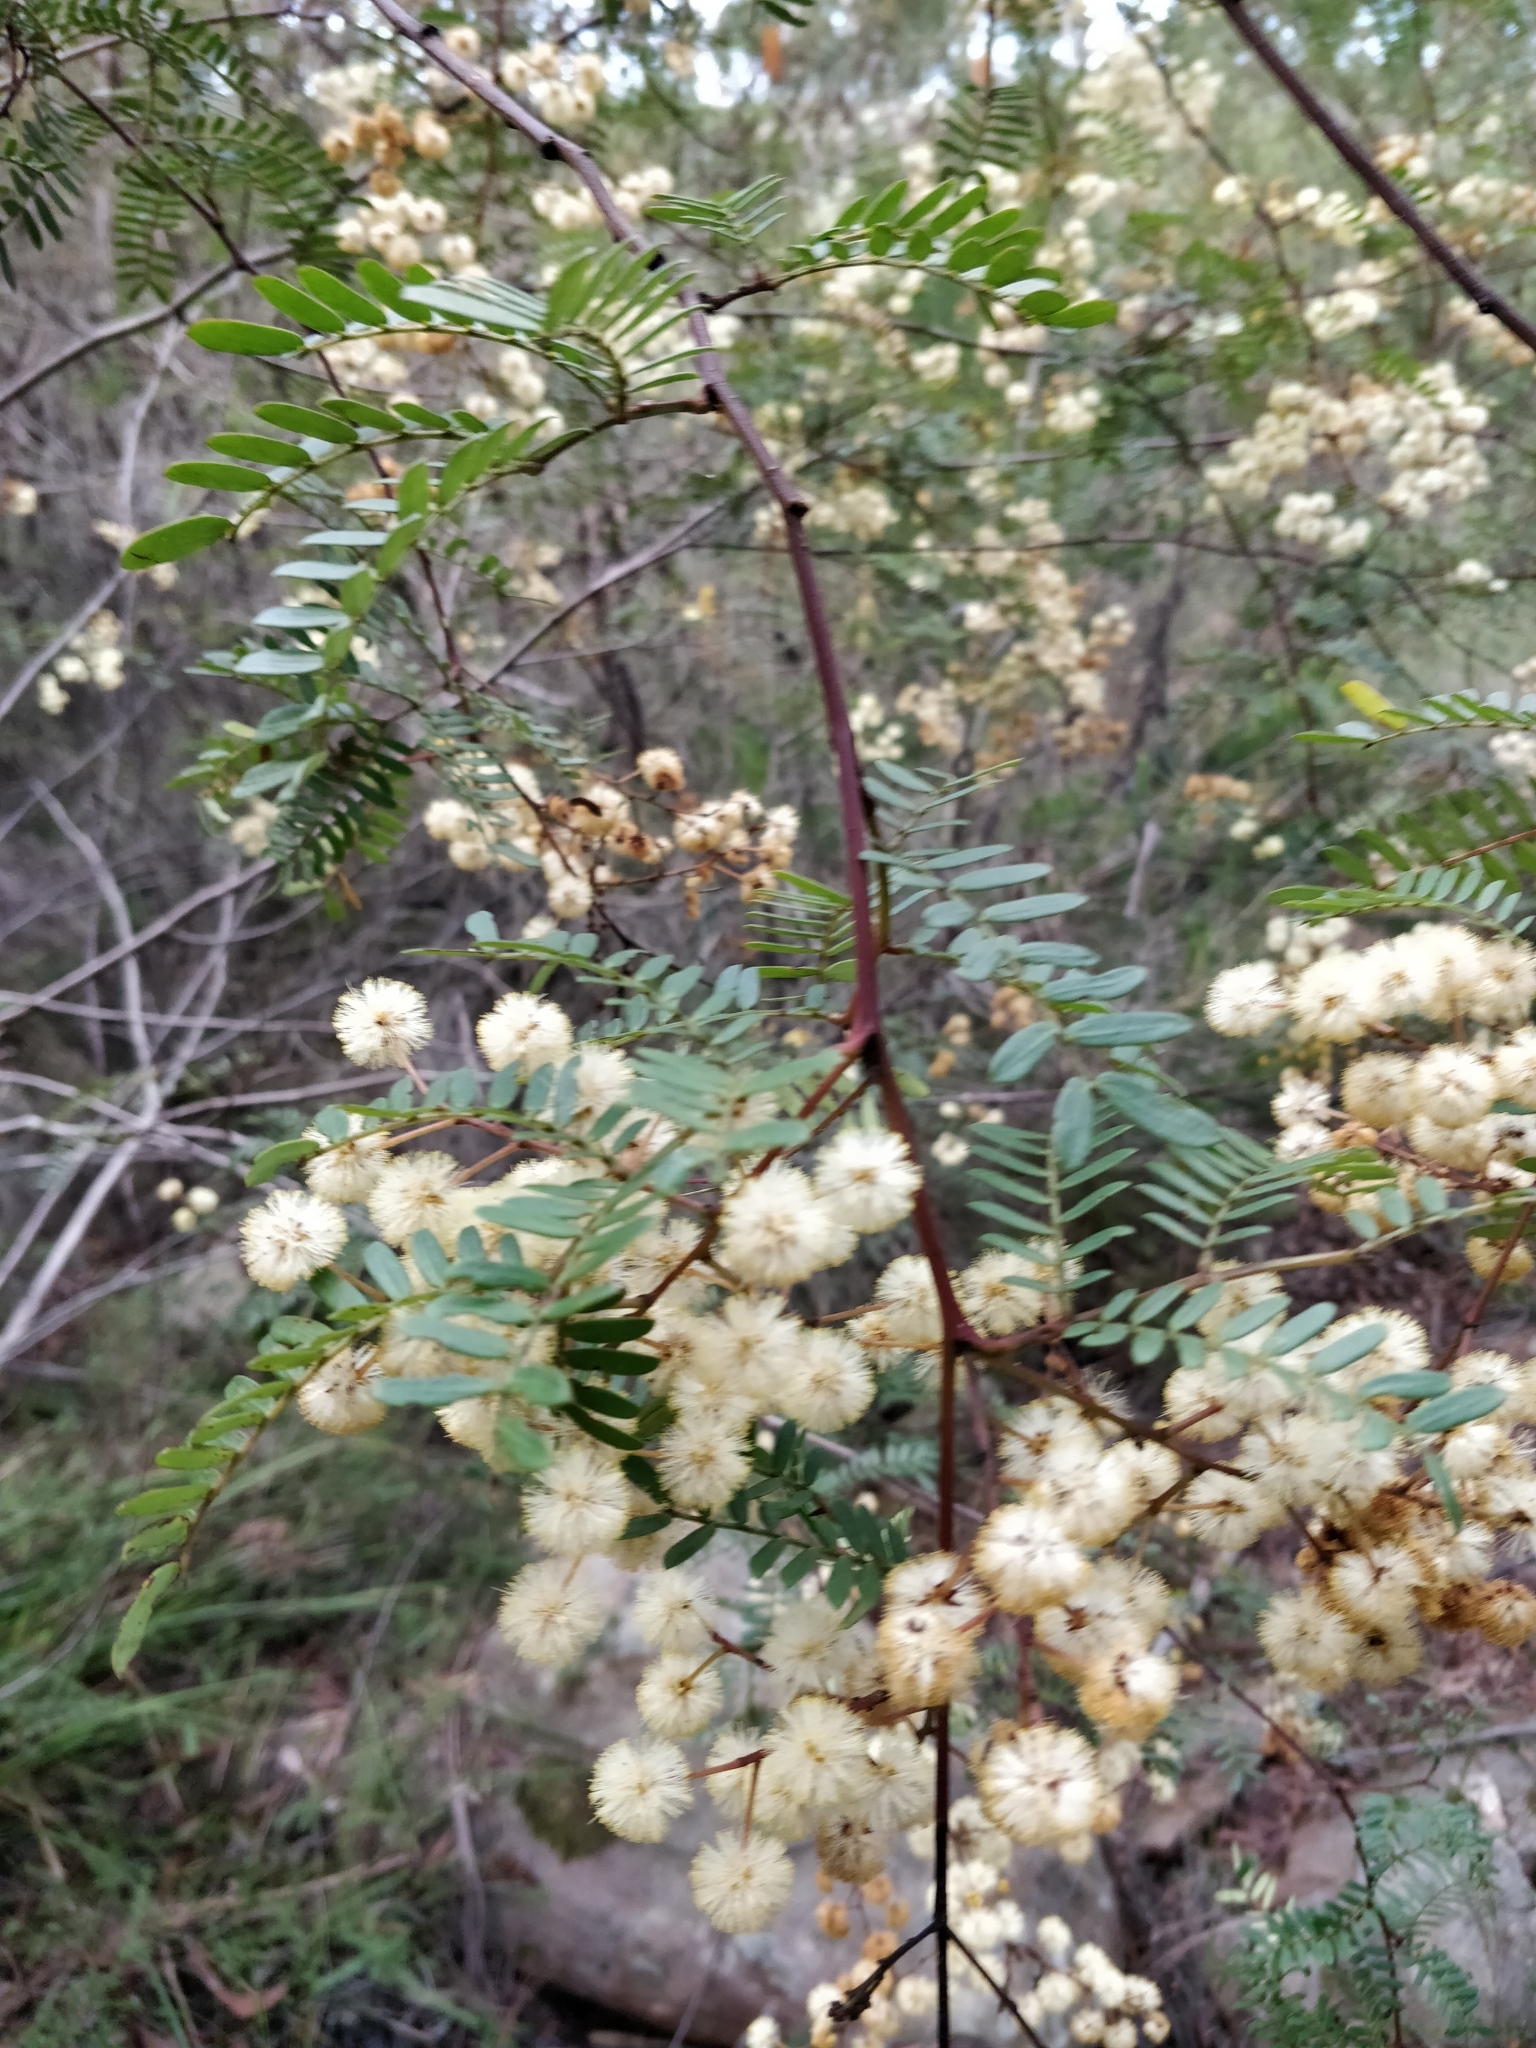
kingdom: Plantae
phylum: Tracheophyta
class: Magnoliopsida
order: Fabales
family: Fabaceae
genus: Acacia
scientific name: Acacia terminalis
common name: Cedar wattle
